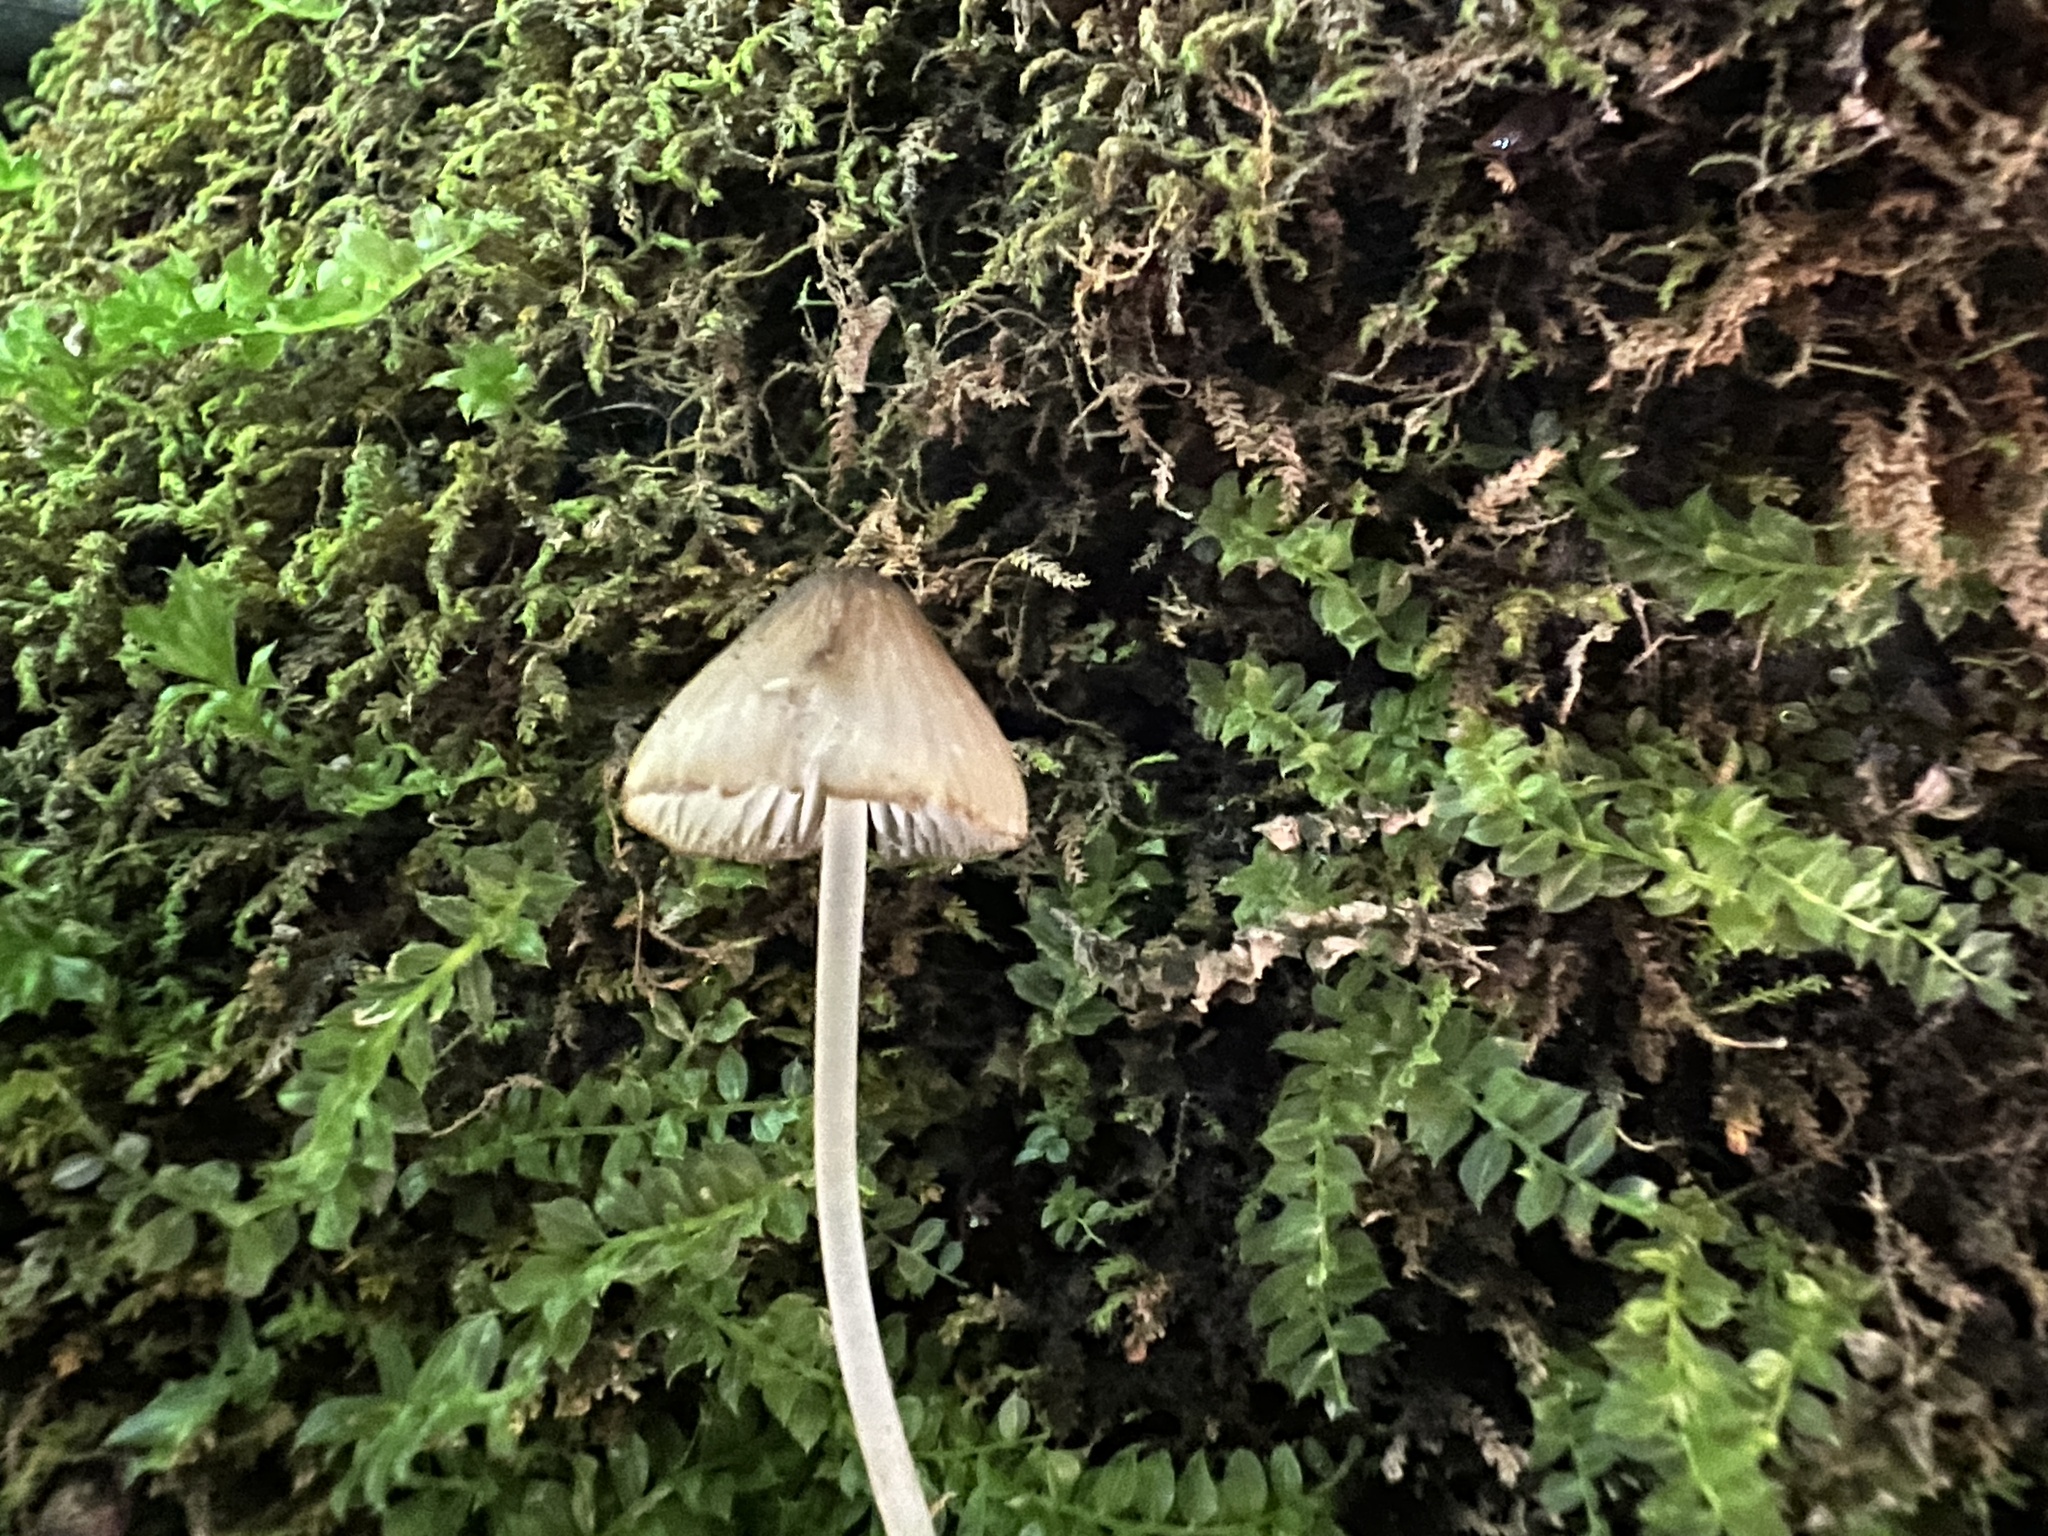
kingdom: Fungi
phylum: Basidiomycota
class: Agaricomycetes
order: Agaricales
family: Mycenaceae
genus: Mycena
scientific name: Mycena haematopus
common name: Burgundydrop bonnet
